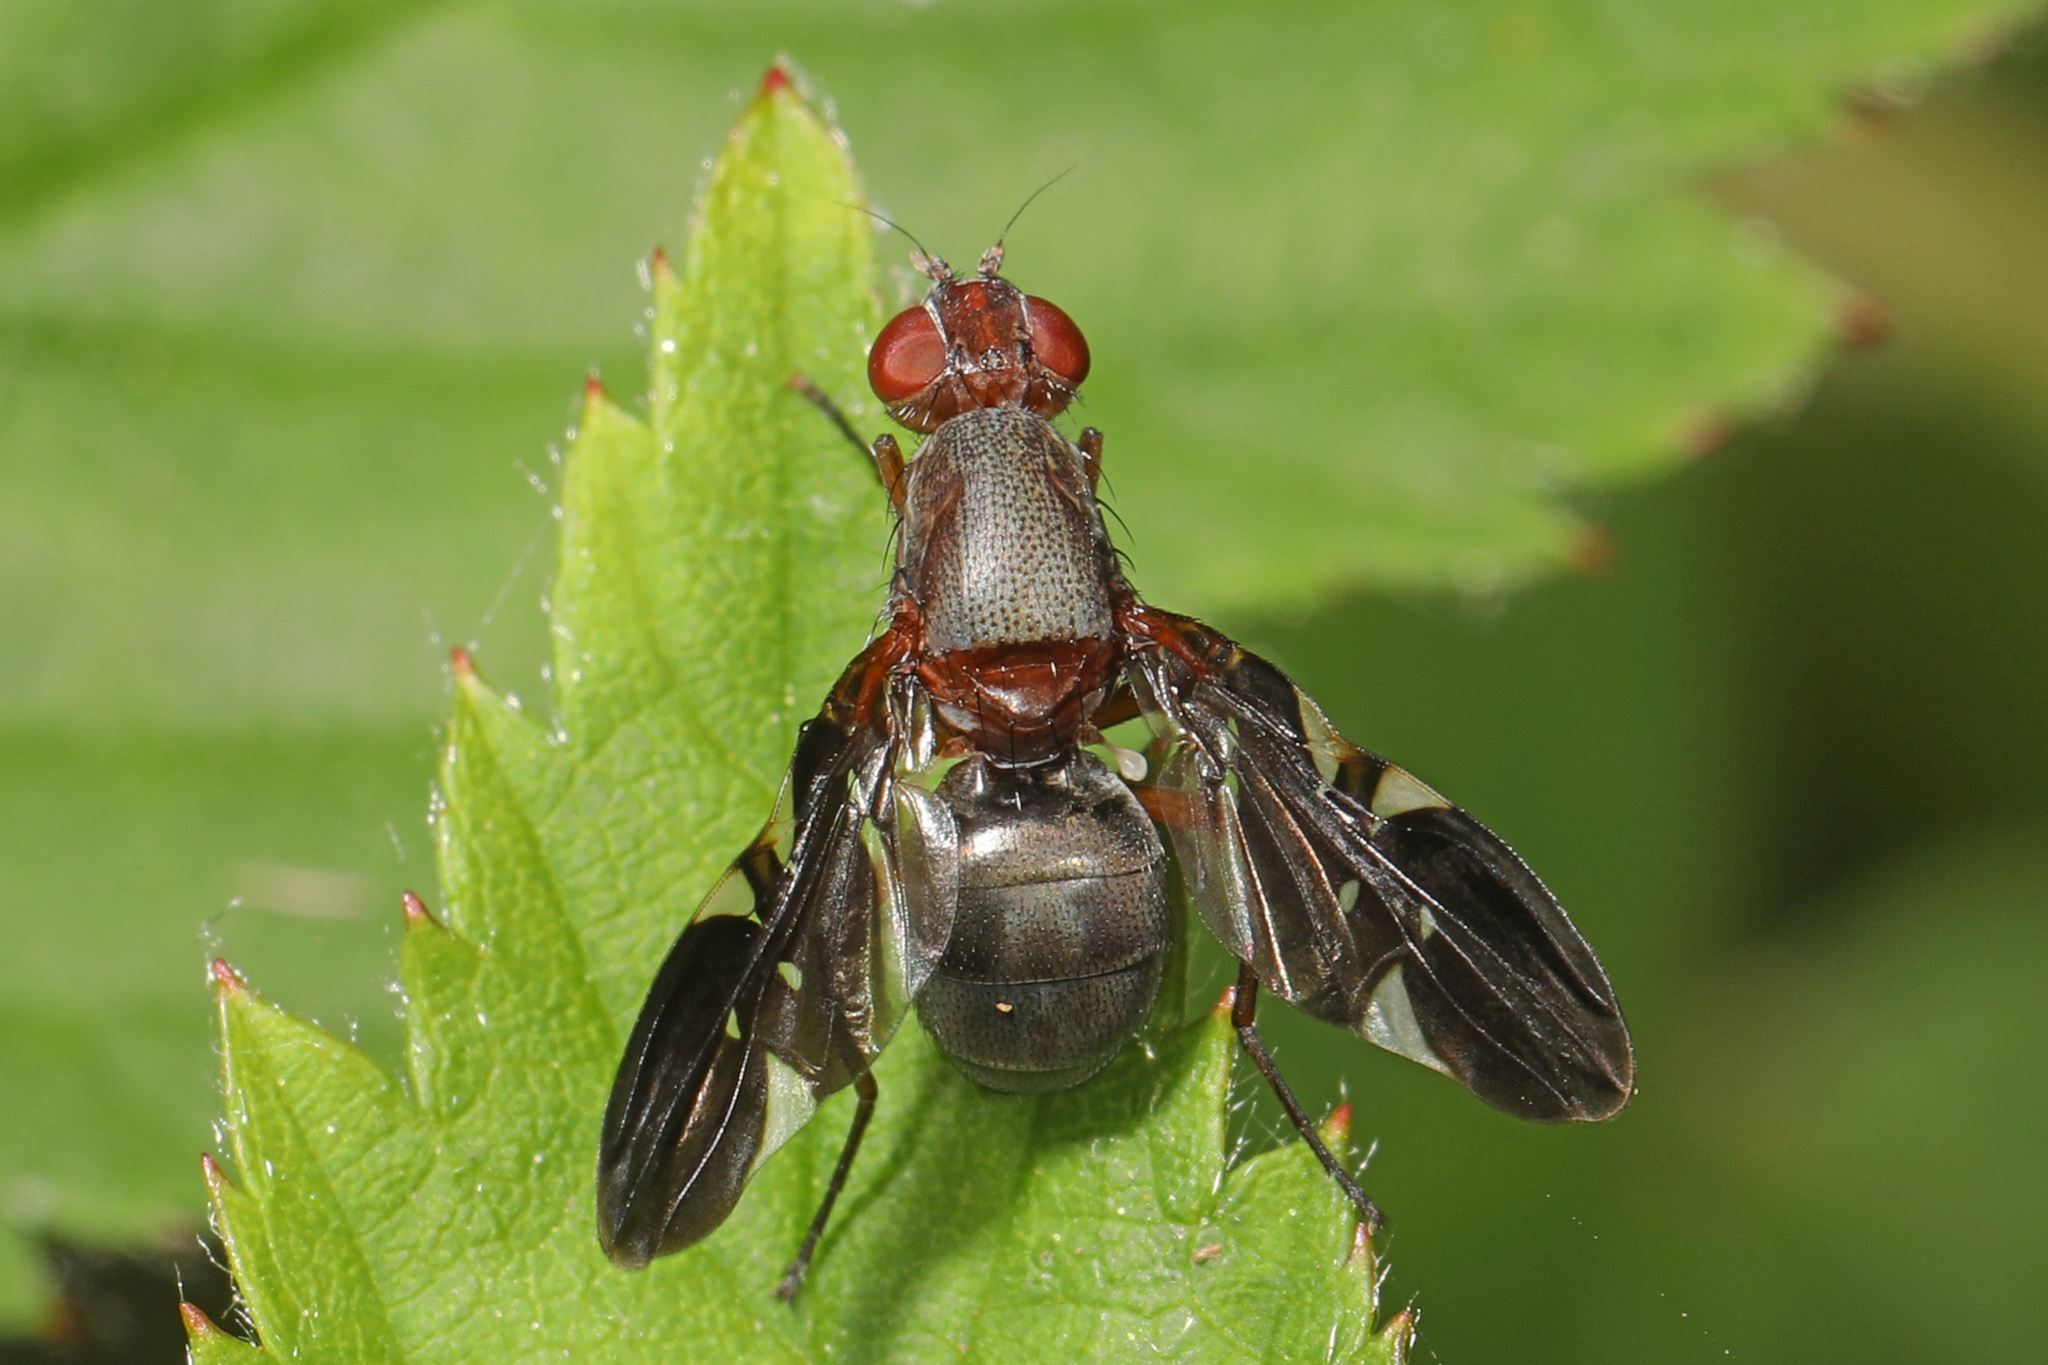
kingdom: Animalia
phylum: Arthropoda
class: Insecta
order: Diptera
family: Ulidiidae
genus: Delphinia
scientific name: Delphinia picta
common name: Common picture-winged fly
